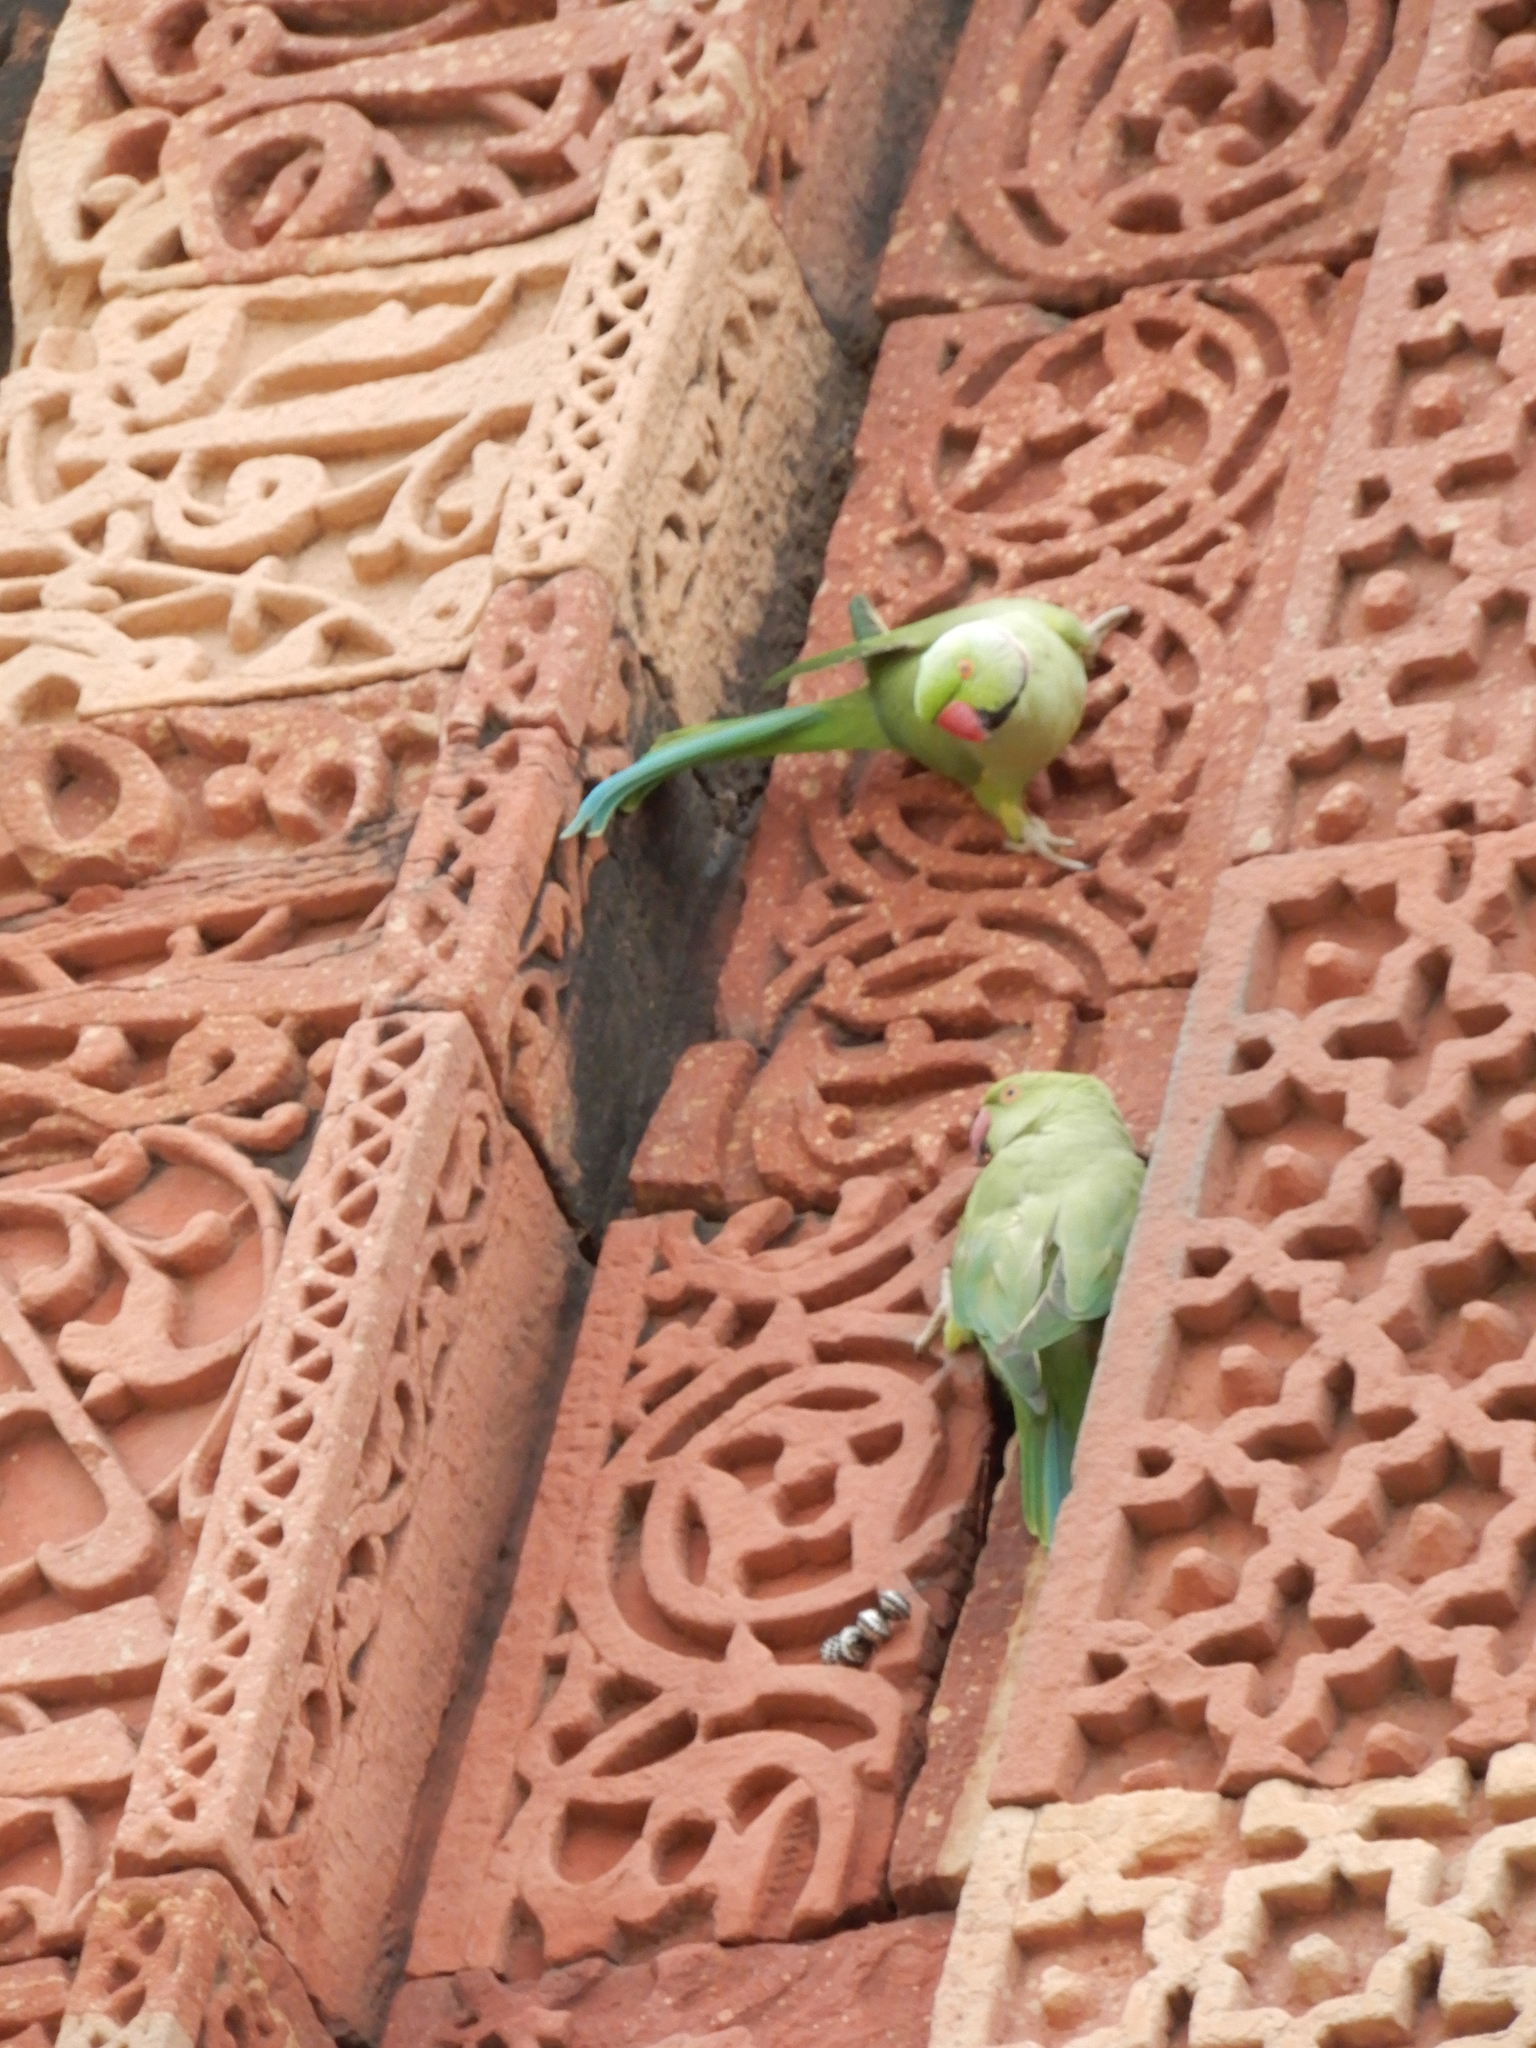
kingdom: Animalia
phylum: Chordata
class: Aves
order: Psittaciformes
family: Psittacidae
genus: Psittacula
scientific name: Psittacula krameri
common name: Rose-ringed parakeet
